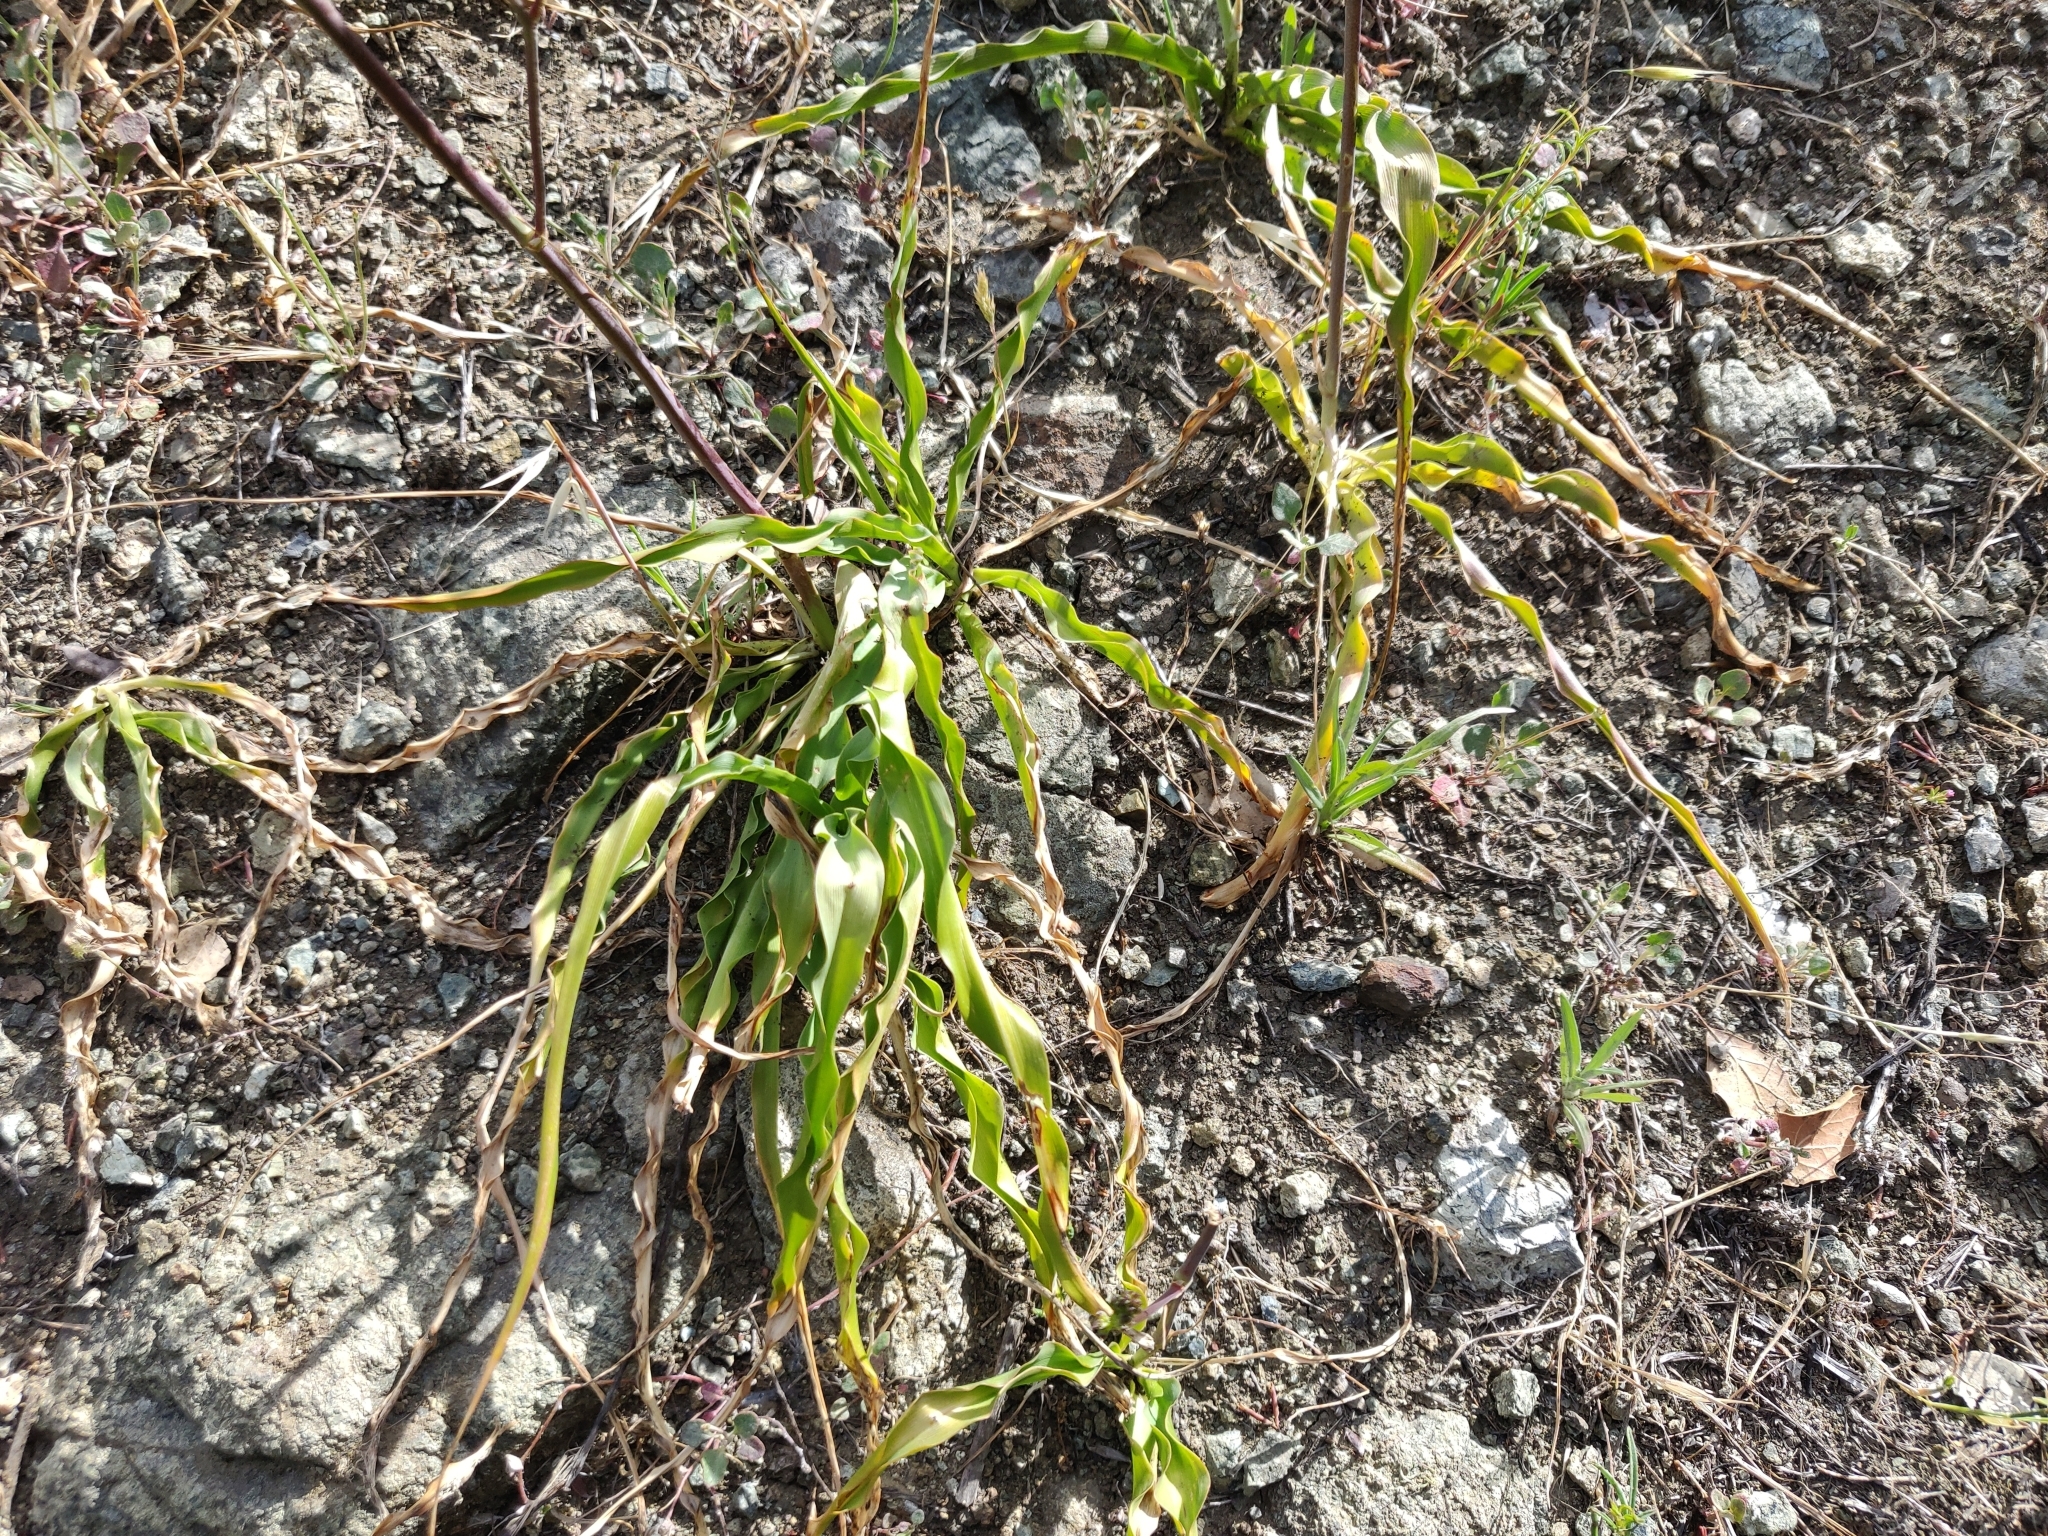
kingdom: Plantae
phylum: Tracheophyta
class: Liliopsida
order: Asparagales
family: Asparagaceae
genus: Chlorogalum
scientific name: Chlorogalum pomeridianum
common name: Amole
